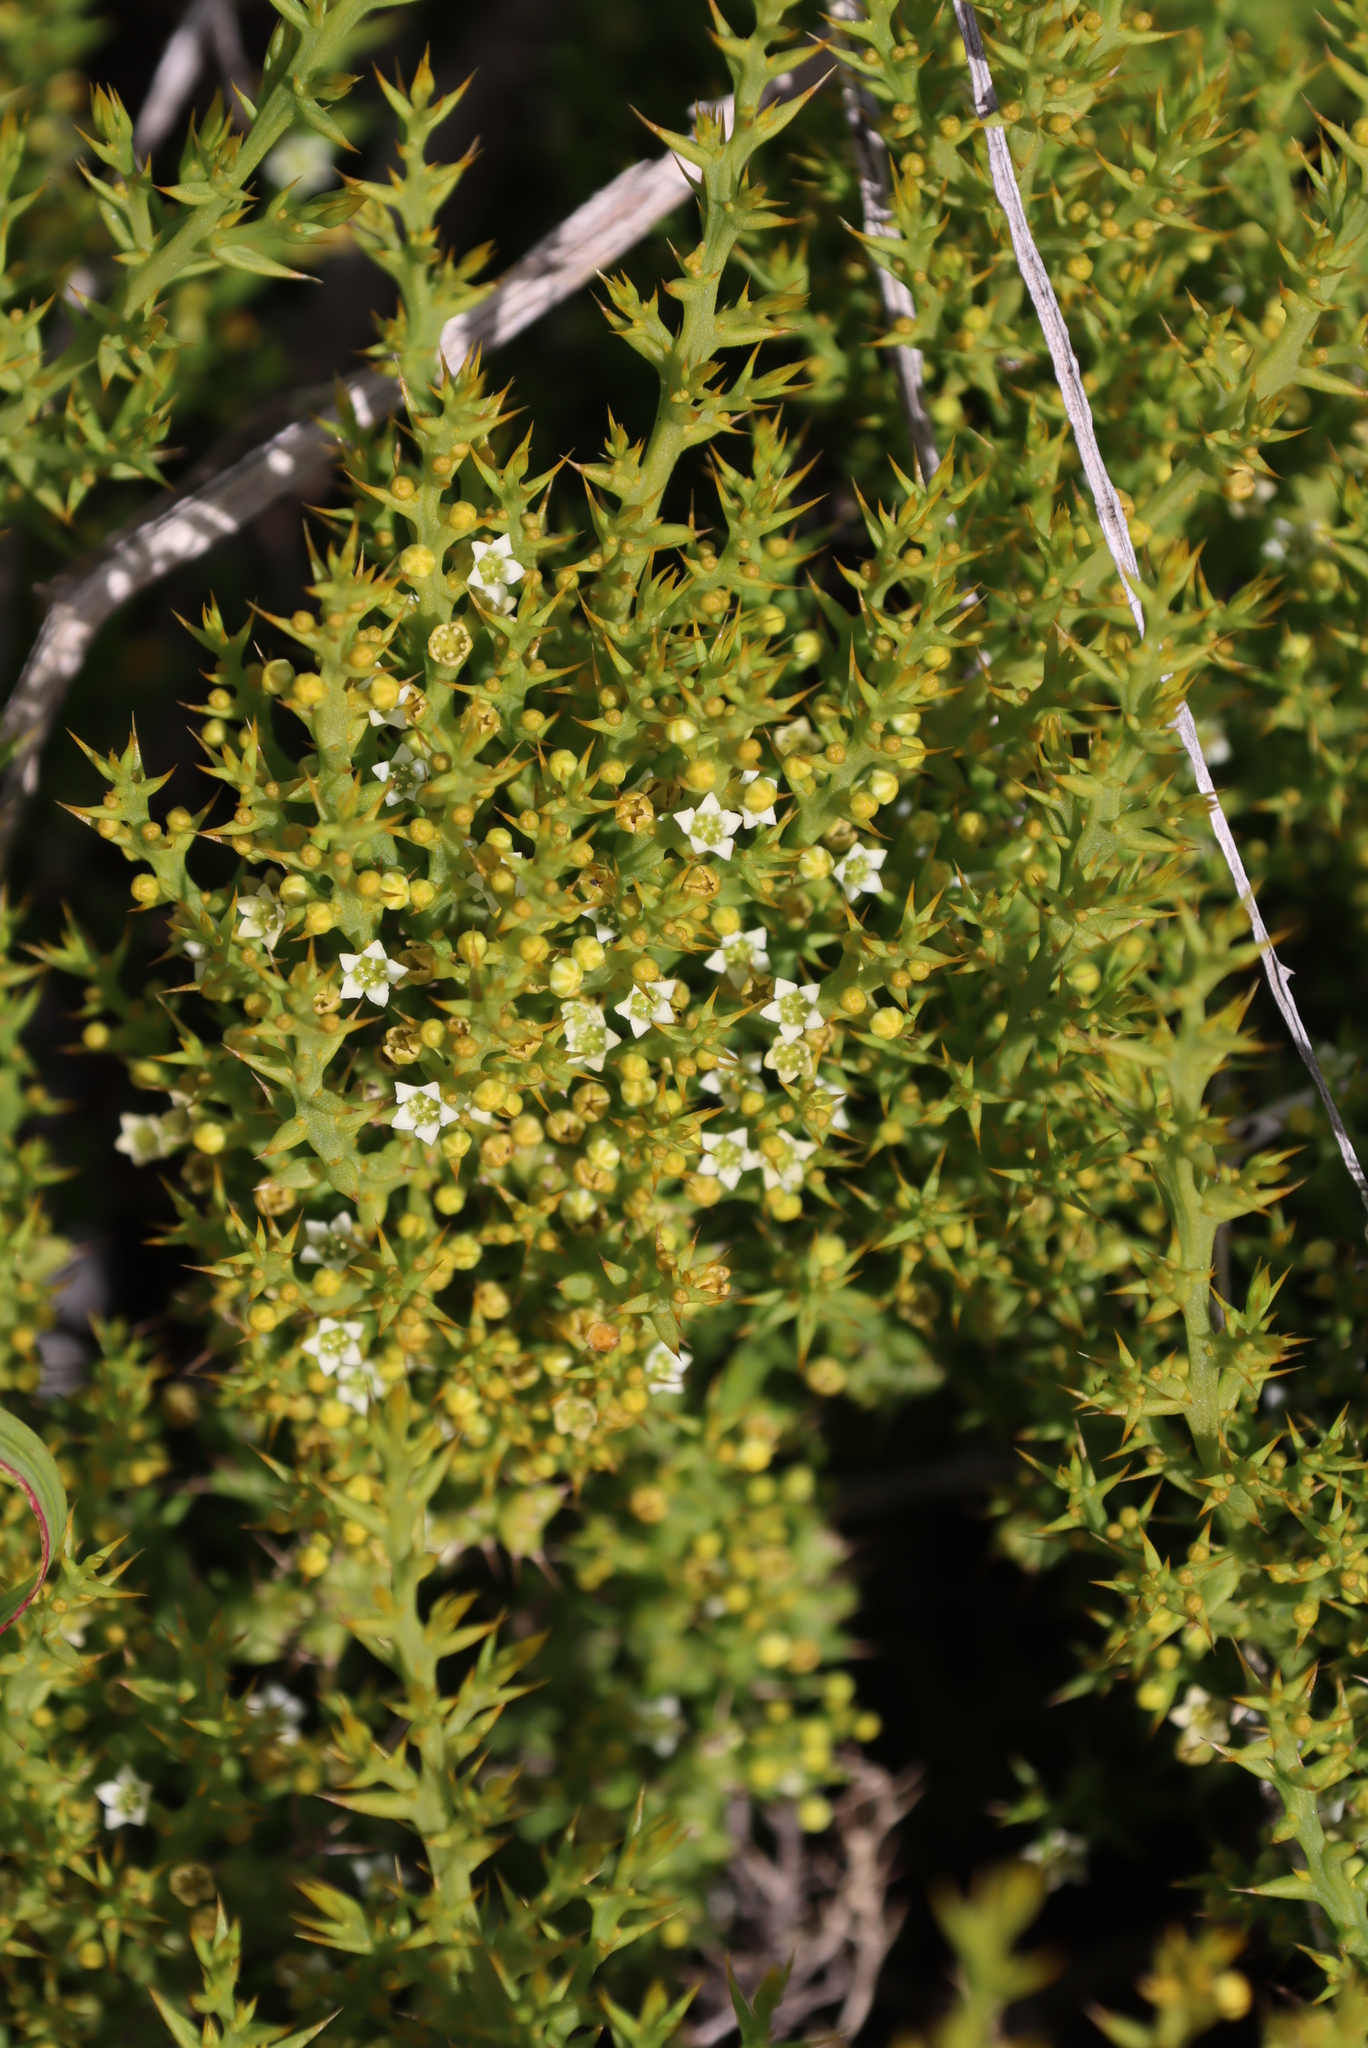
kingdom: Plantae
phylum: Tracheophyta
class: Magnoliopsida
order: Santalales
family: Thesiaceae
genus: Thesium
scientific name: Thesium spinosum
